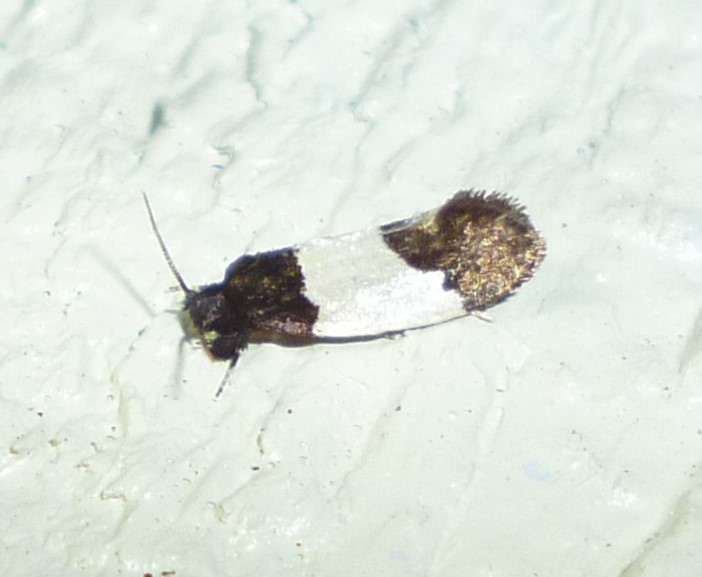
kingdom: Animalia
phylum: Arthropoda
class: Insecta
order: Lepidoptera
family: Psychidae
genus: Kearfottia
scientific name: Kearfottia albifasciella
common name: White-patched kearfottia
